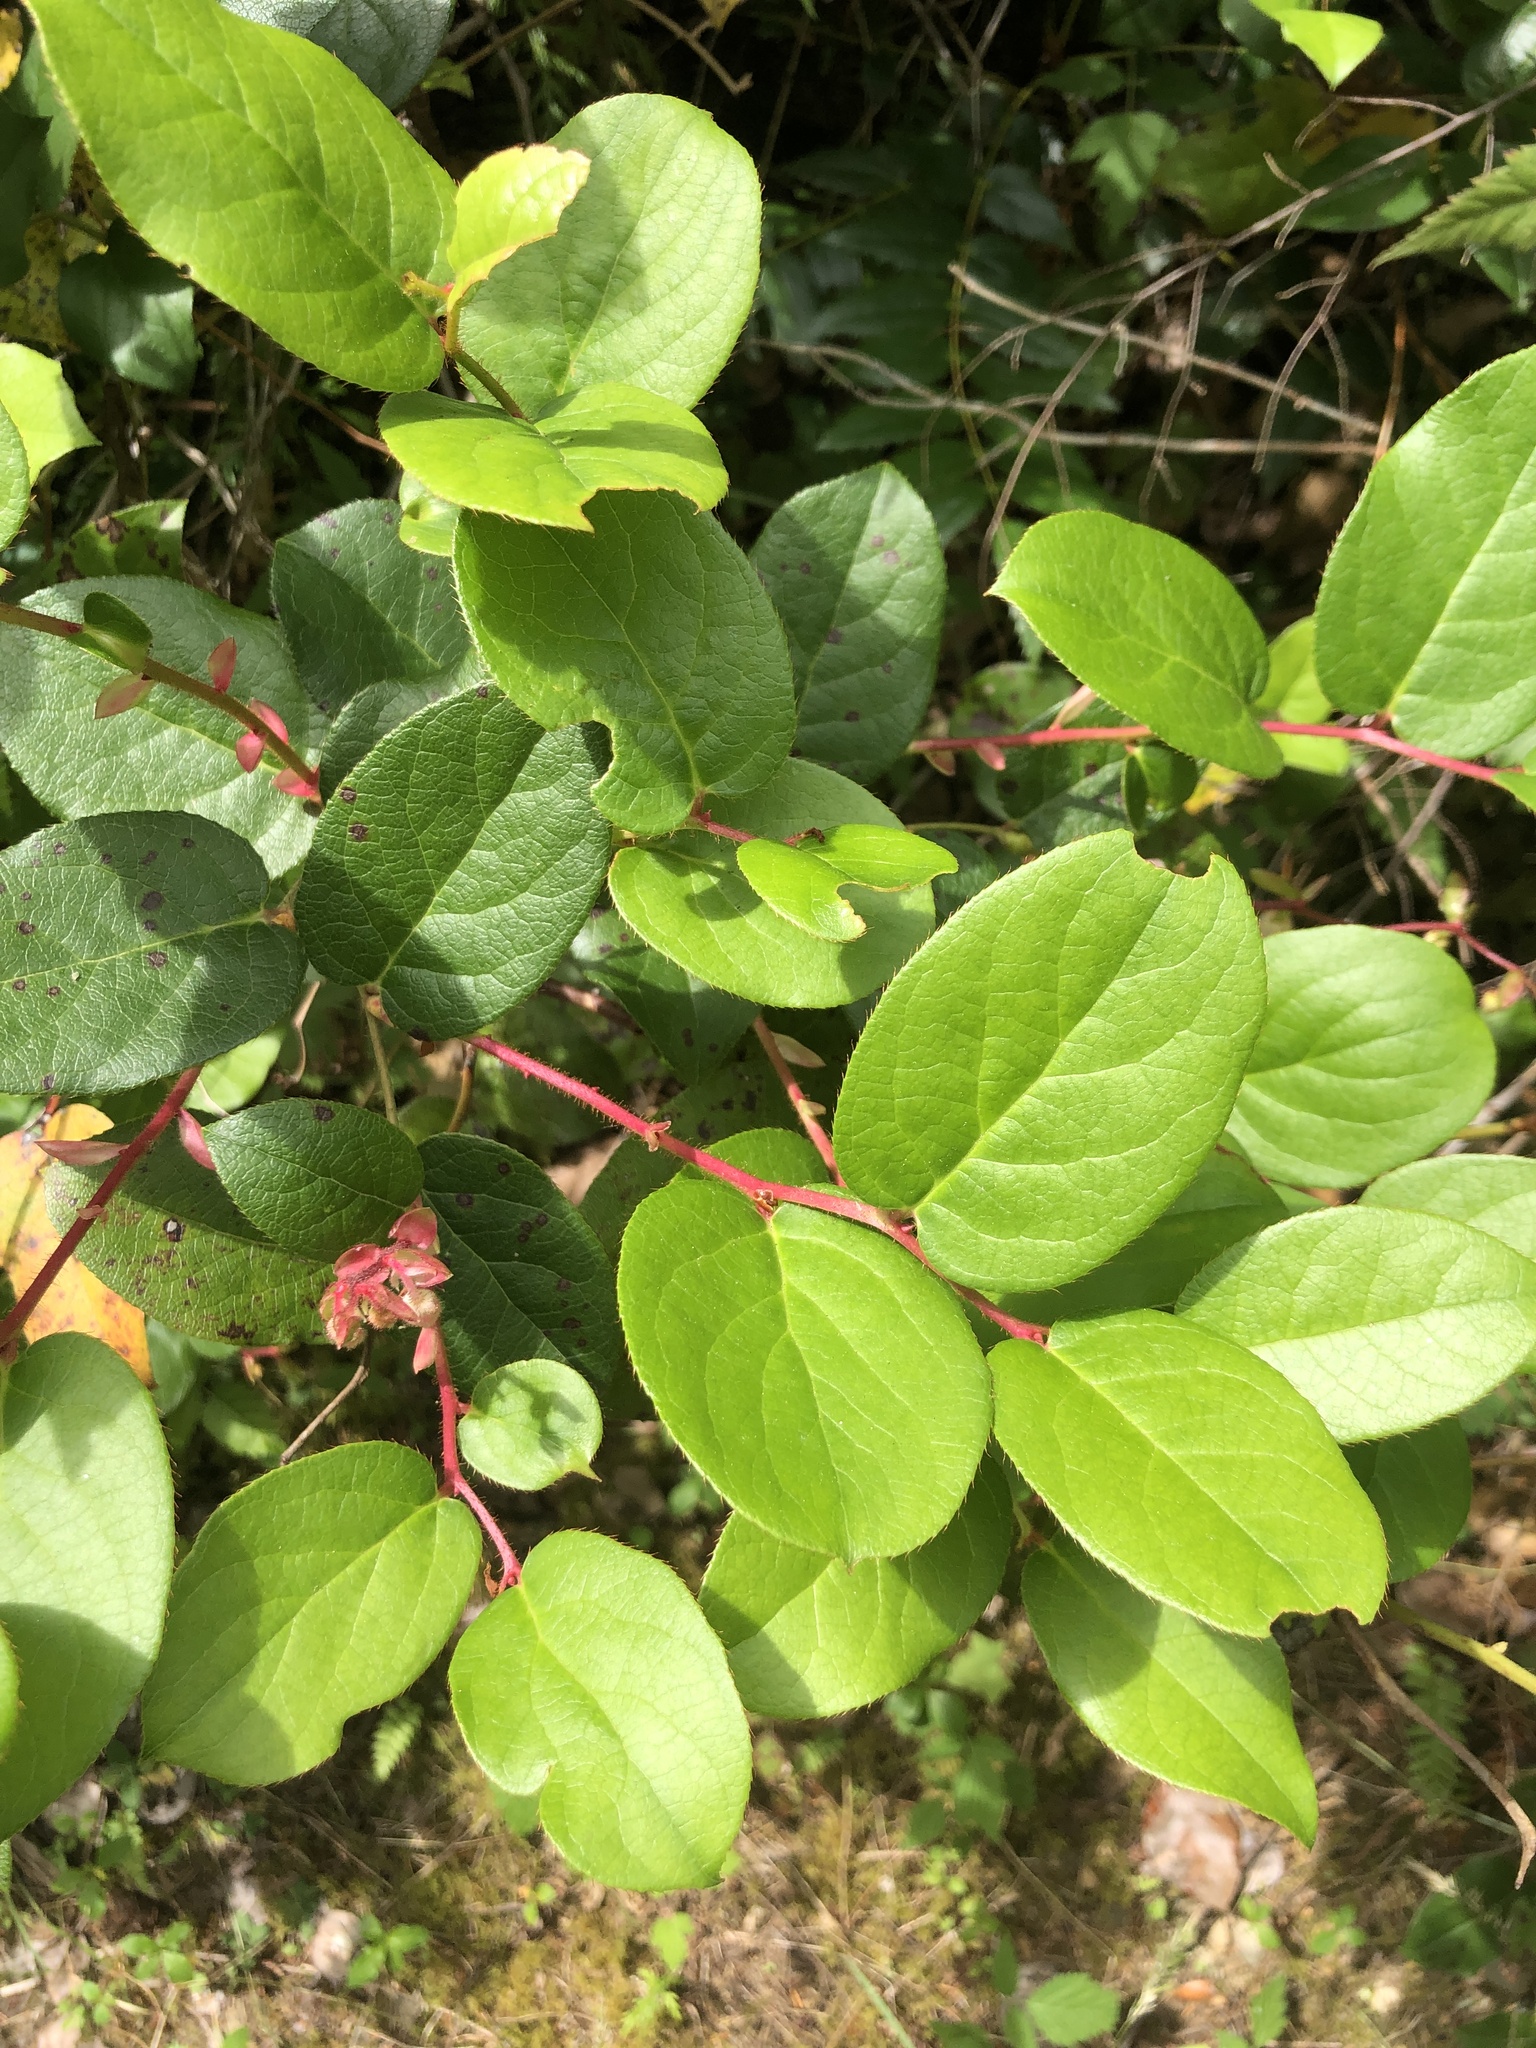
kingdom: Plantae
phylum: Tracheophyta
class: Magnoliopsida
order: Ericales
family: Ericaceae
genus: Gaultheria
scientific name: Gaultheria shallon
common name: Shallon
